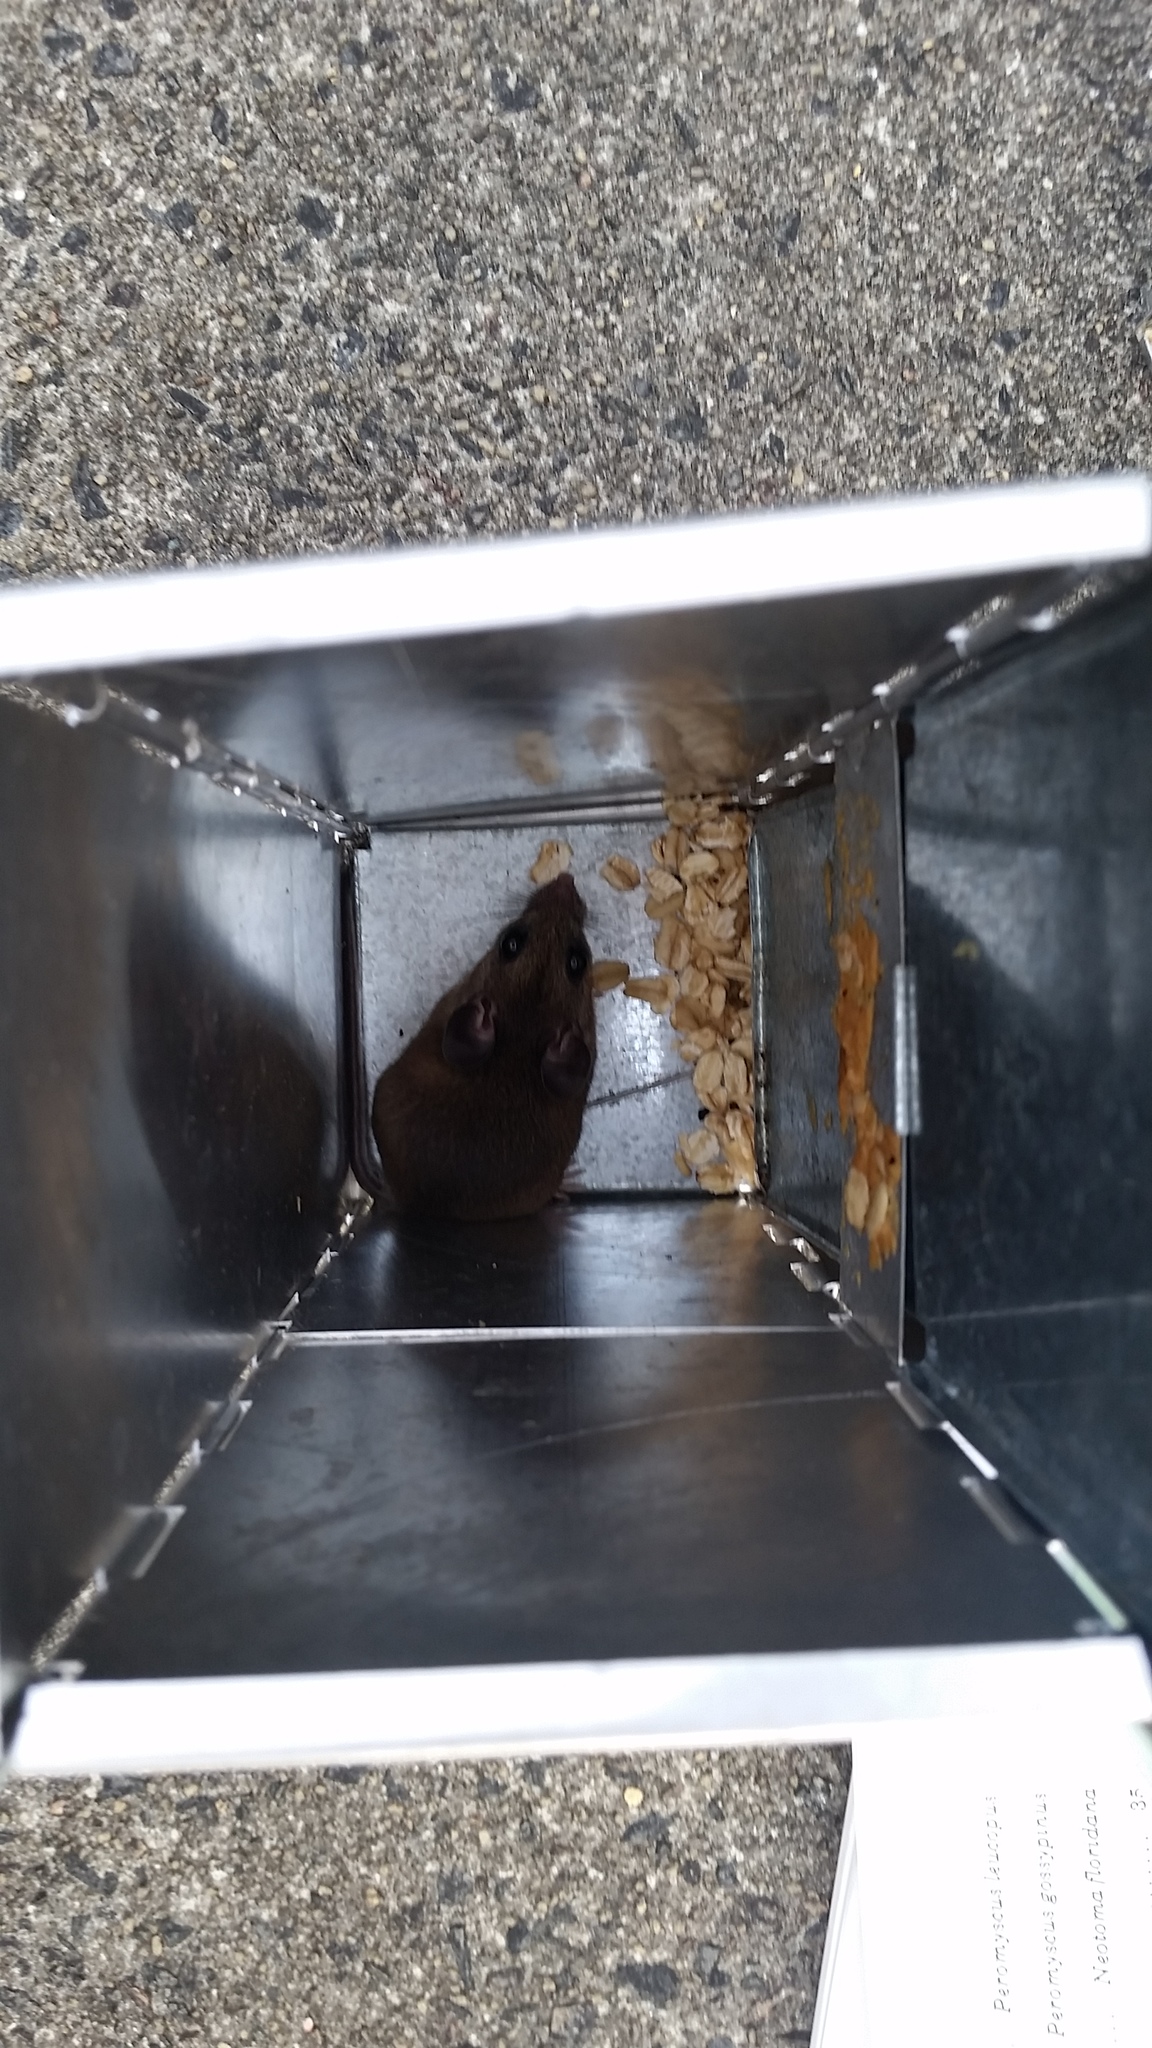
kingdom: Animalia
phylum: Chordata
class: Mammalia
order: Rodentia
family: Cricetidae
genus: Peromyscus
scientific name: Peromyscus polionotus
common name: Oldfield mouse
